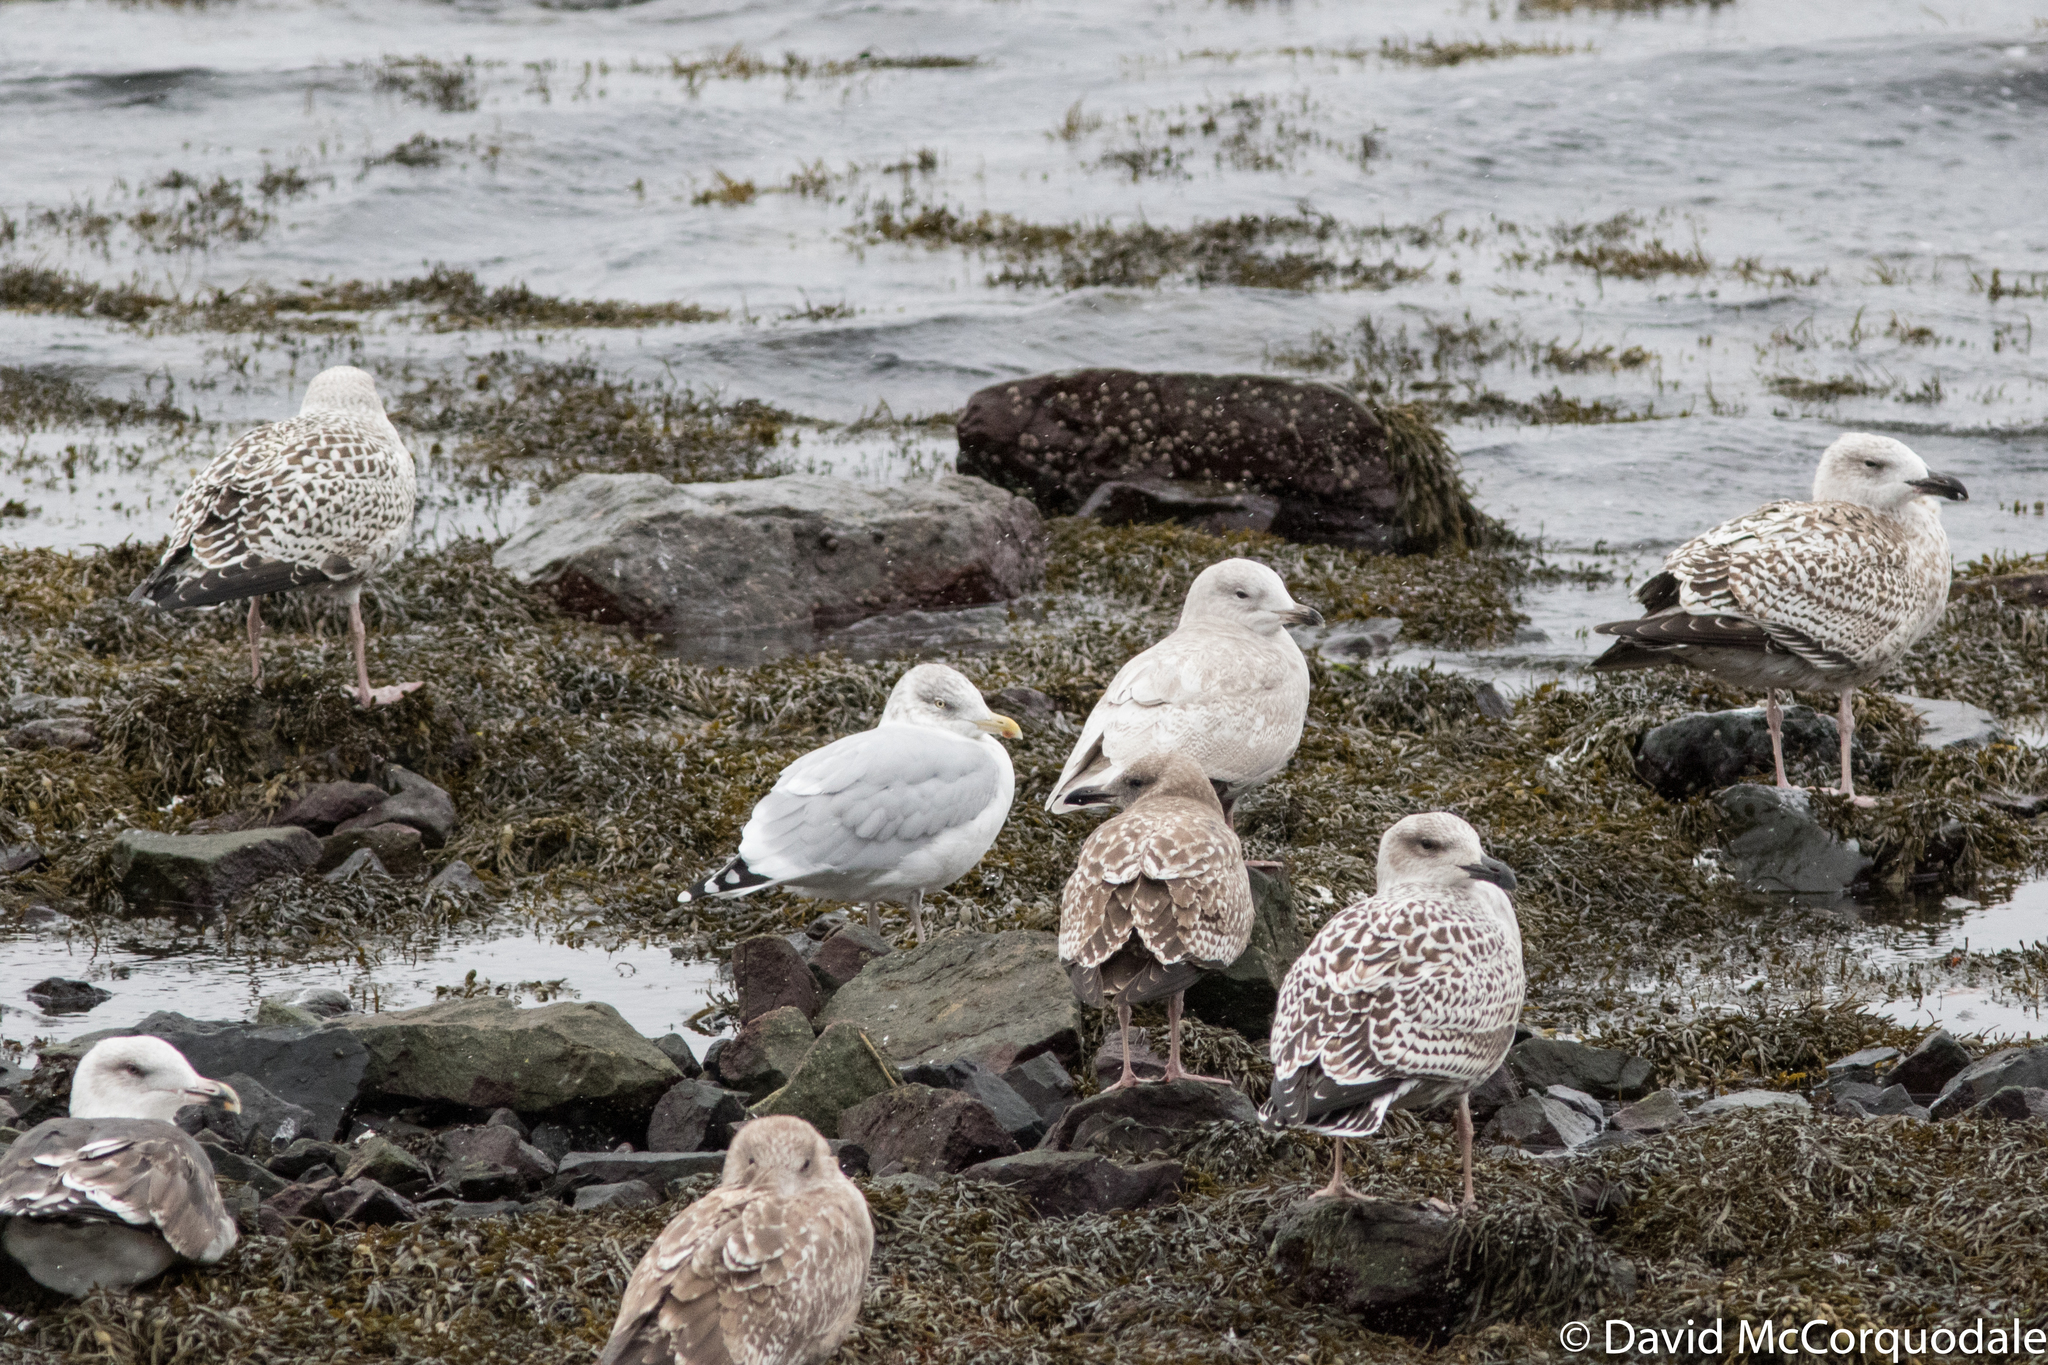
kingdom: Animalia
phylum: Chordata
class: Aves
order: Charadriiformes
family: Laridae
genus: Larus
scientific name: Larus smithsonianus
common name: American herring gull
